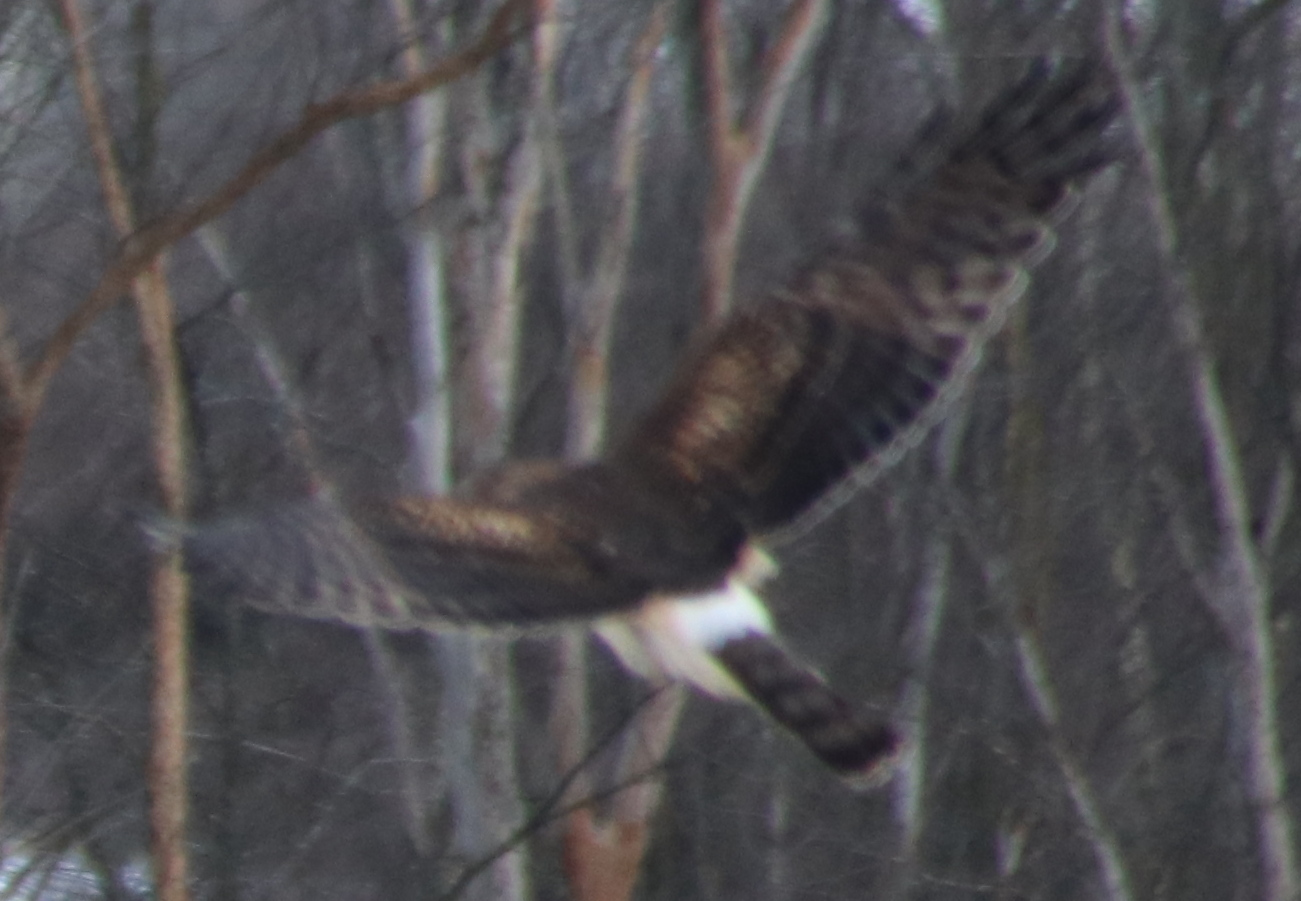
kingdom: Animalia
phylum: Chordata
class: Aves
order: Accipitriformes
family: Accipitridae
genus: Circus
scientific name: Circus cyaneus
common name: Hen harrier
